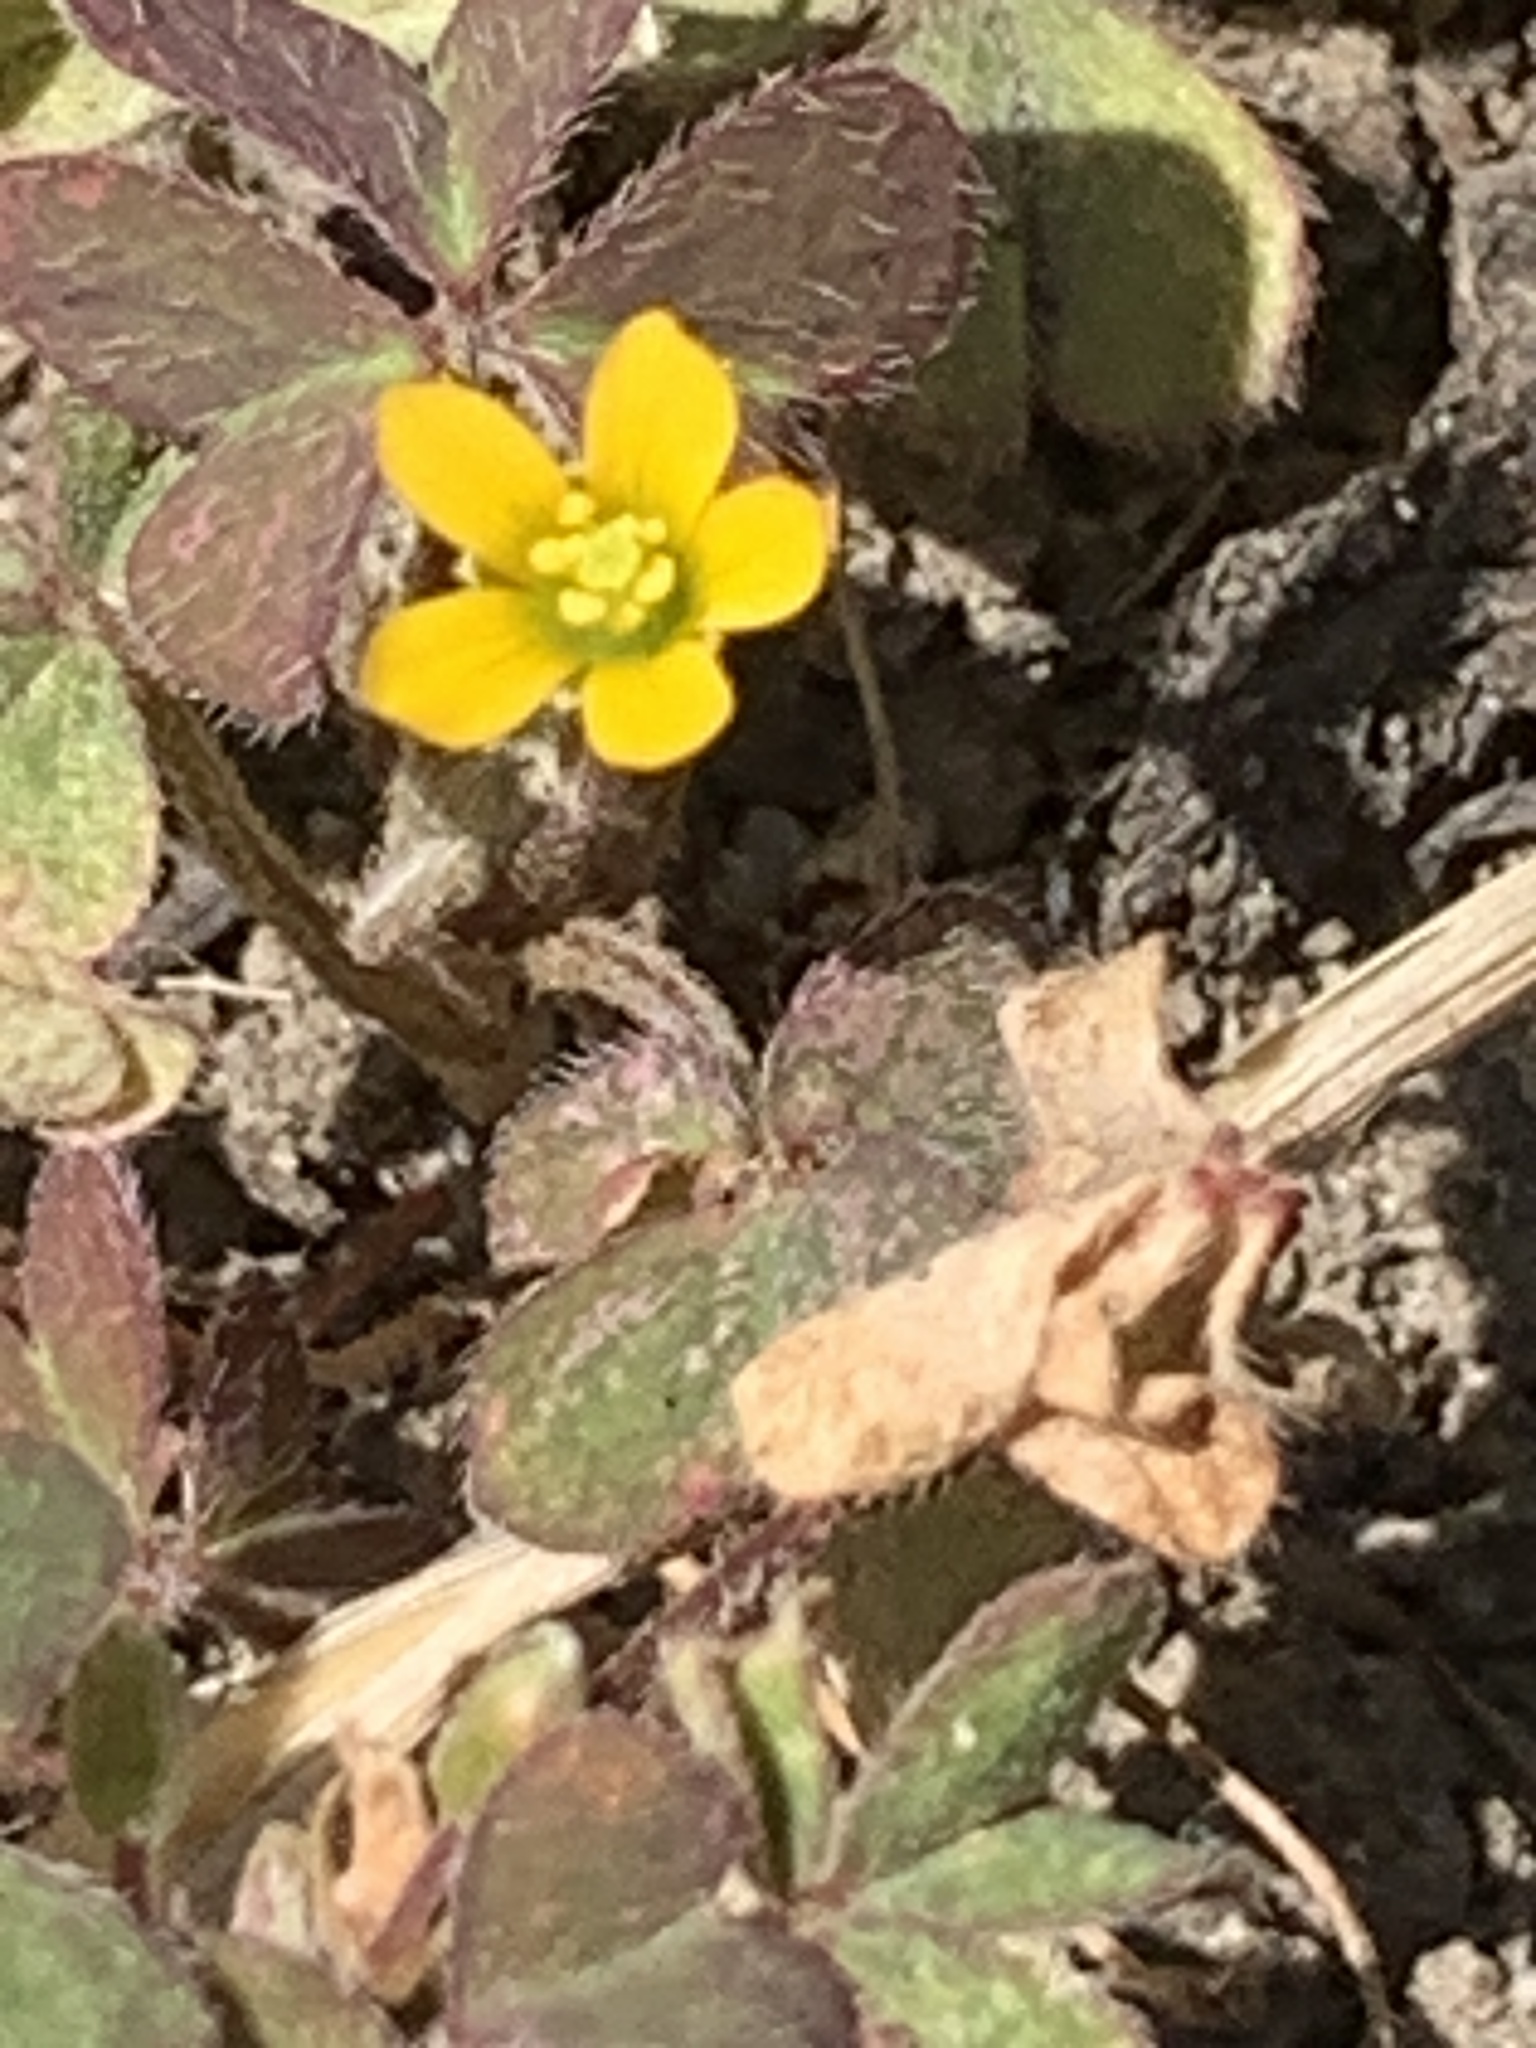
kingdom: Plantae
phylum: Tracheophyta
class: Magnoliopsida
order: Oxalidales
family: Oxalidaceae
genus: Oxalis
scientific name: Oxalis corniculata
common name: Procumbent yellow-sorrel
